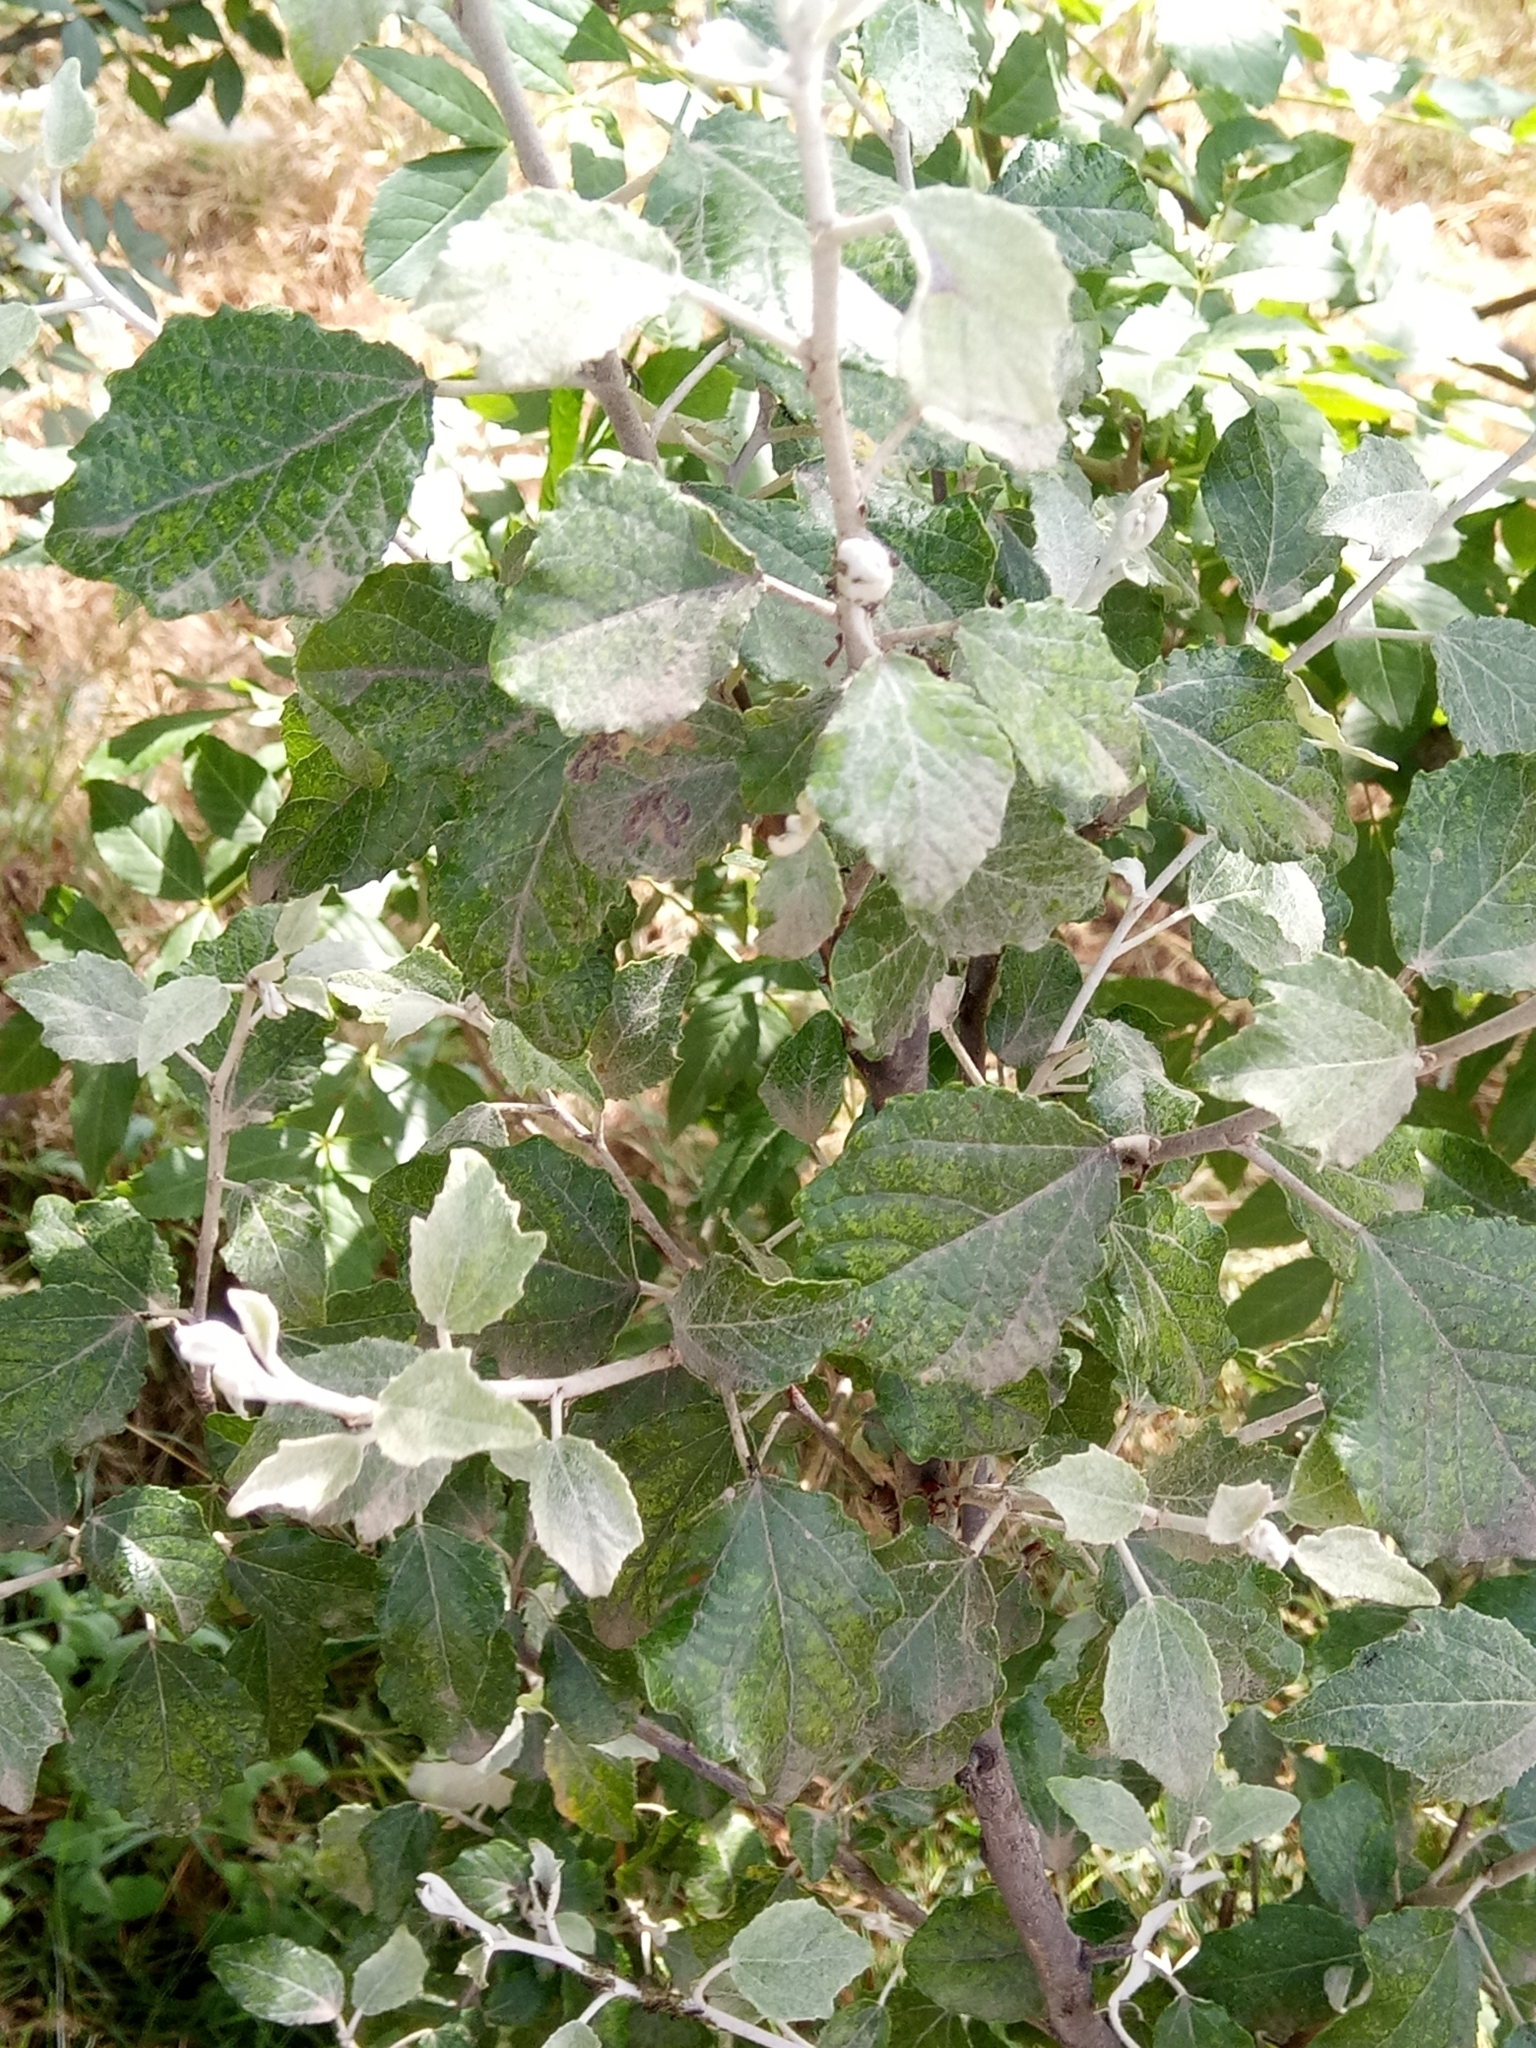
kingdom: Plantae
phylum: Tracheophyta
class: Magnoliopsida
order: Malpighiales
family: Salicaceae
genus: Populus
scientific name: Populus alba
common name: White poplar
